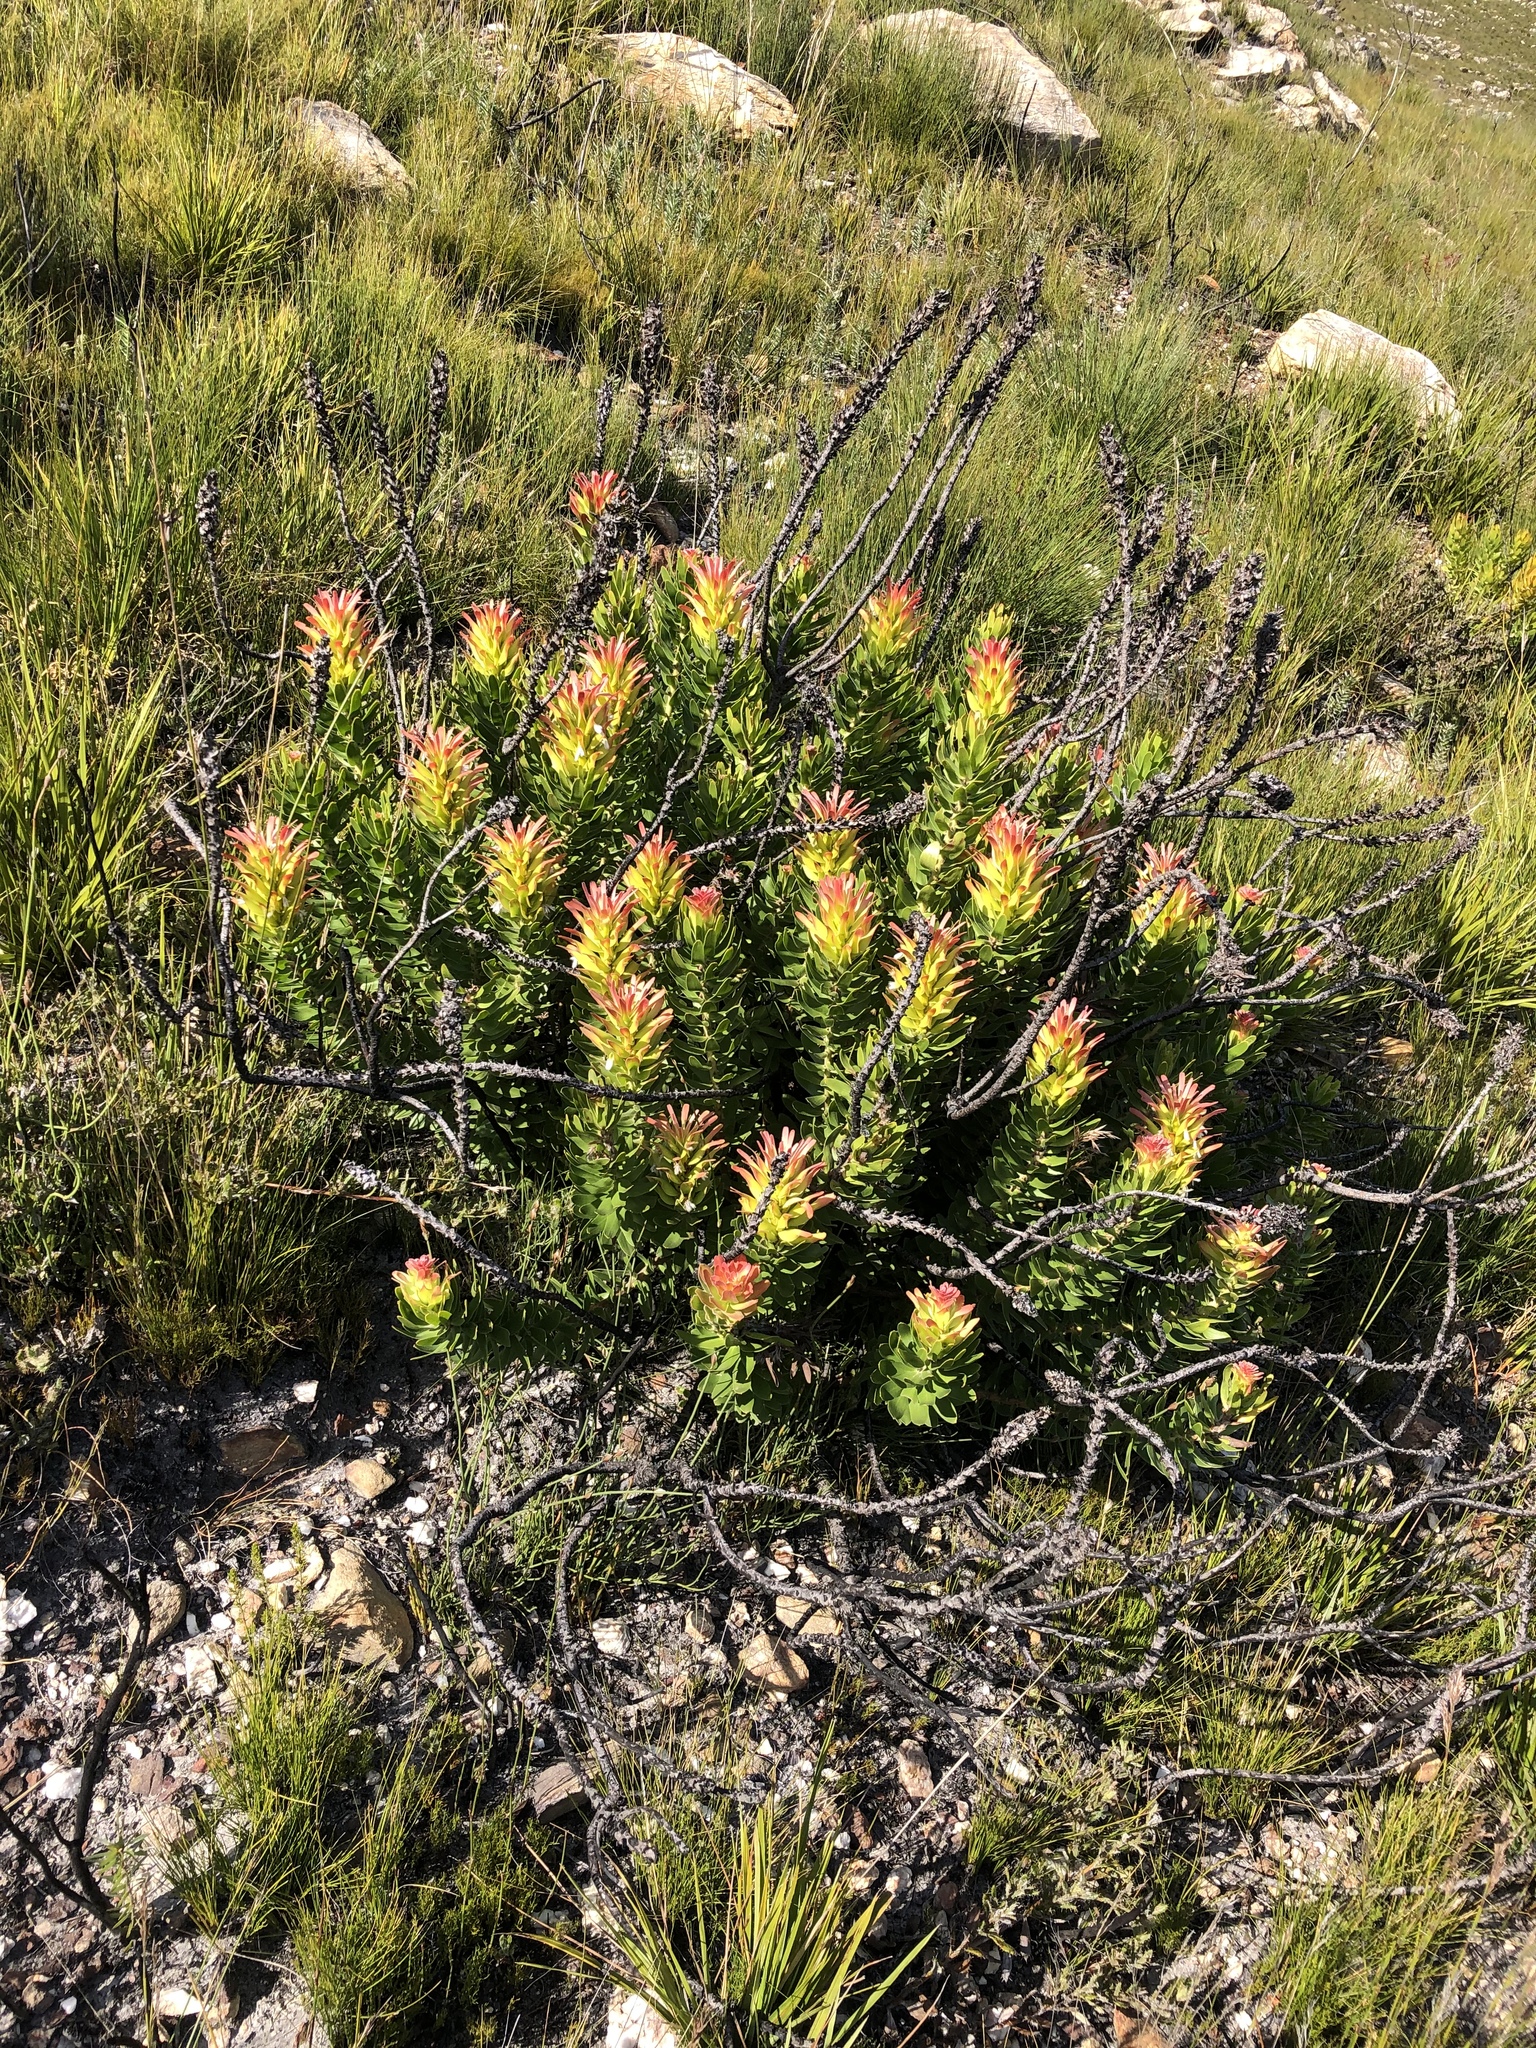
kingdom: Plantae
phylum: Tracheophyta
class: Magnoliopsida
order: Proteales
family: Proteaceae
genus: Mimetes
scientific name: Mimetes cucullatus
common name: Common pagoda
